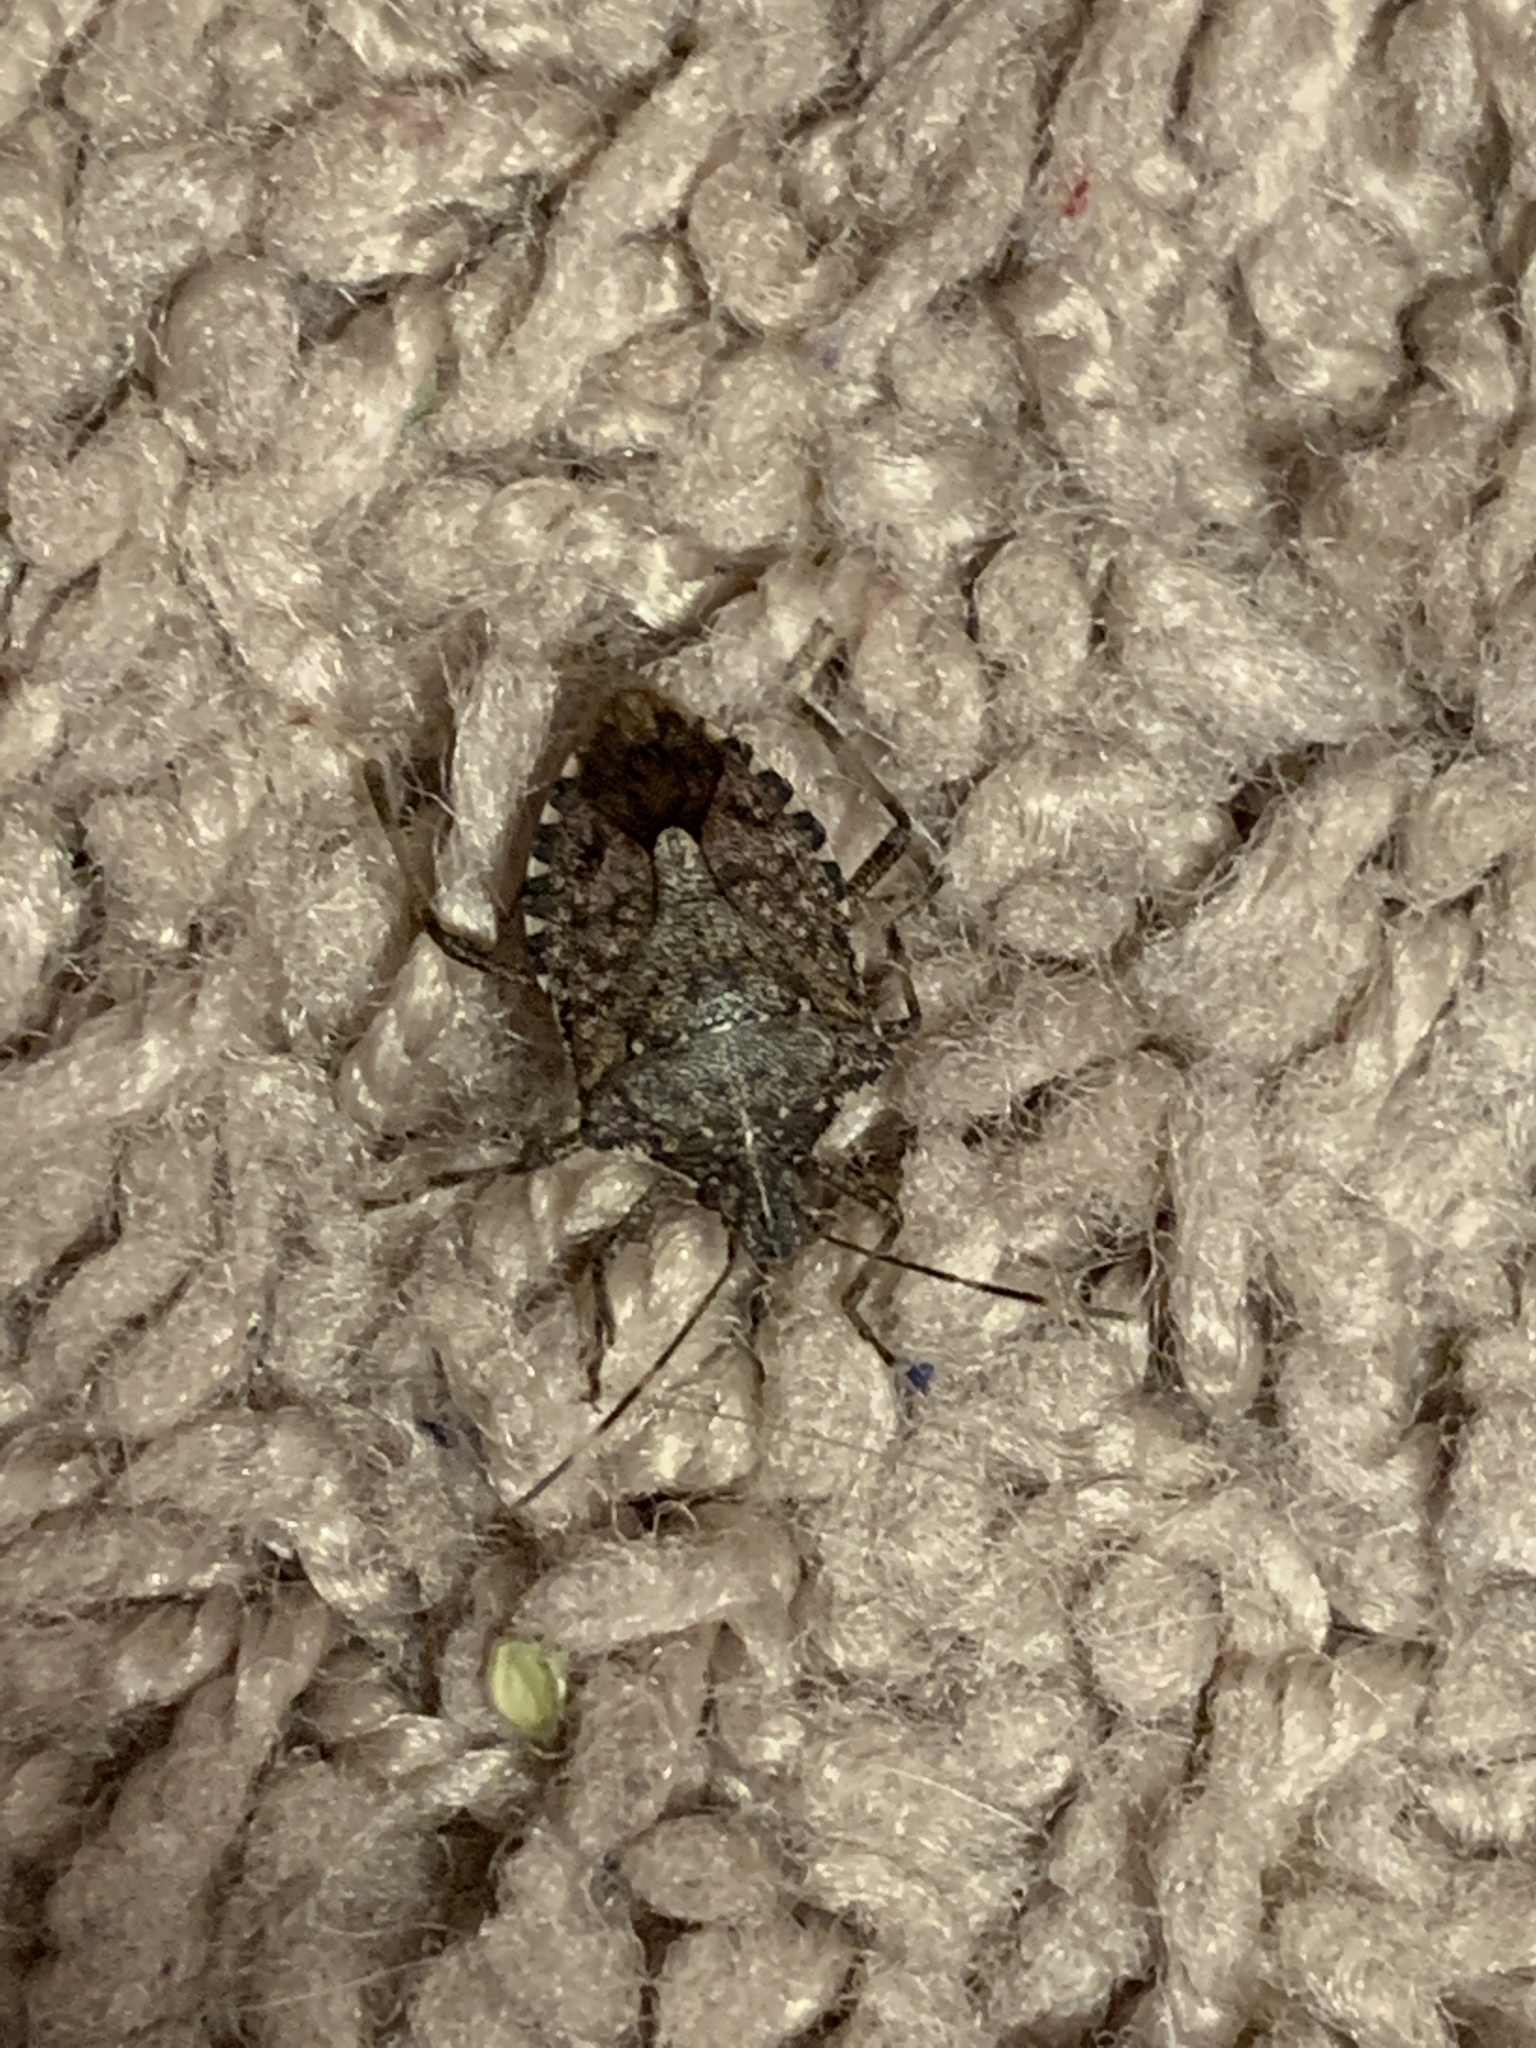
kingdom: Animalia
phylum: Arthropoda
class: Insecta
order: Hemiptera
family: Pentatomidae
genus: Halyomorpha
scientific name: Halyomorpha halys
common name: Brown marmorated stink bug
